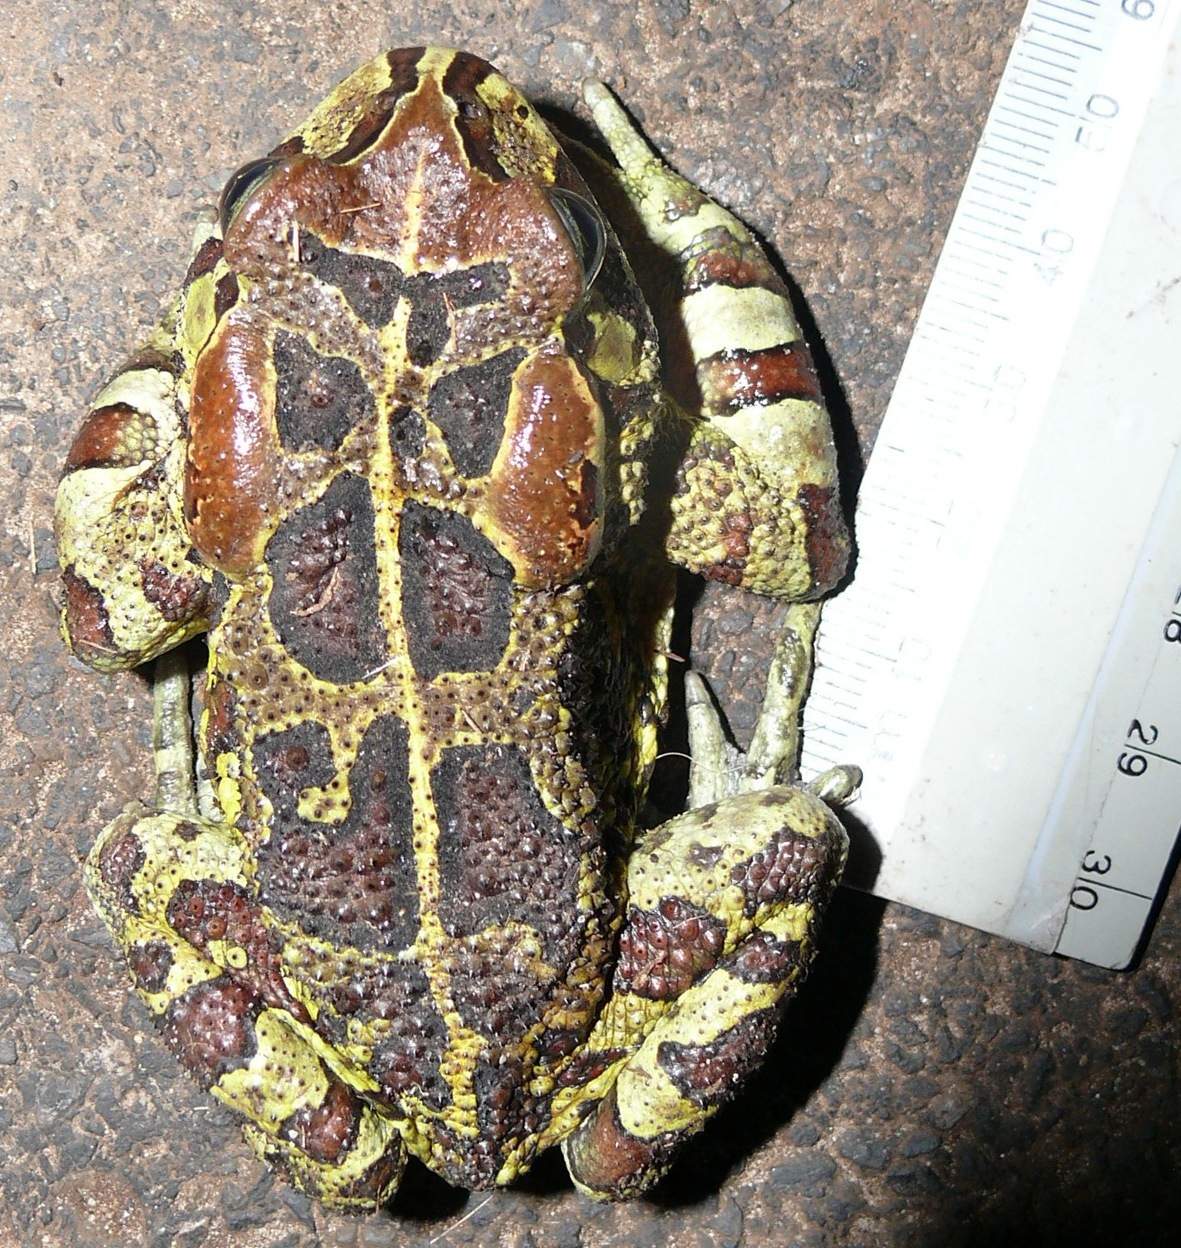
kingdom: Animalia
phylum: Chordata
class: Amphibia
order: Anura
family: Bufonidae
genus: Sclerophrys
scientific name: Sclerophrys pantherina
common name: Panther toad
